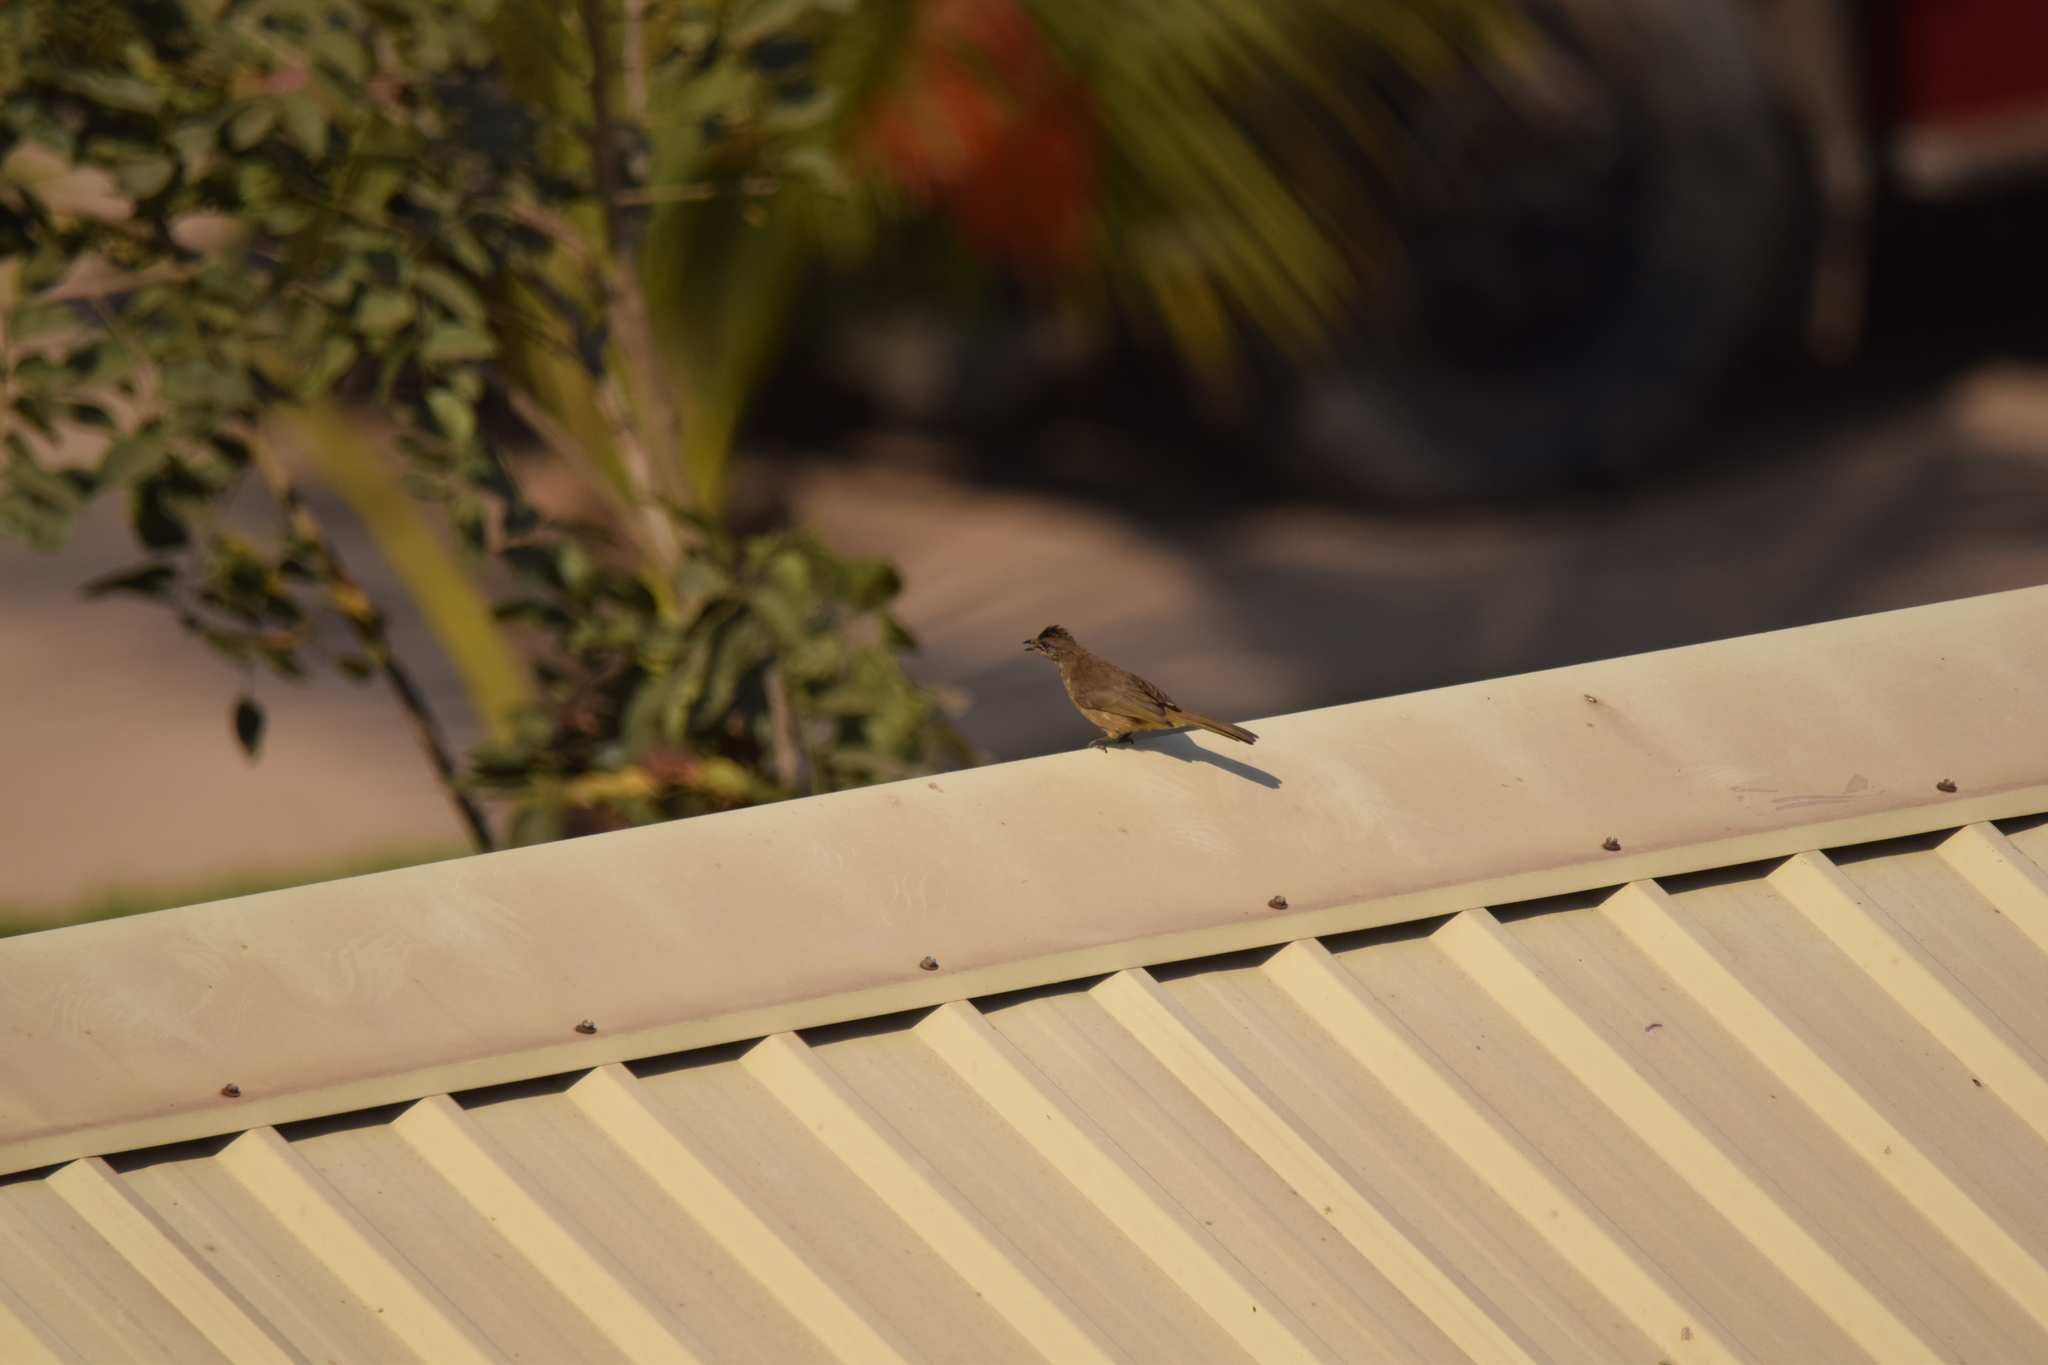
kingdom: Animalia
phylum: Chordata
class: Aves
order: Passeriformes
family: Pycnonotidae
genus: Pycnonotus
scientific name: Pycnonotus blanfordi
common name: Streak-eared bulbul
